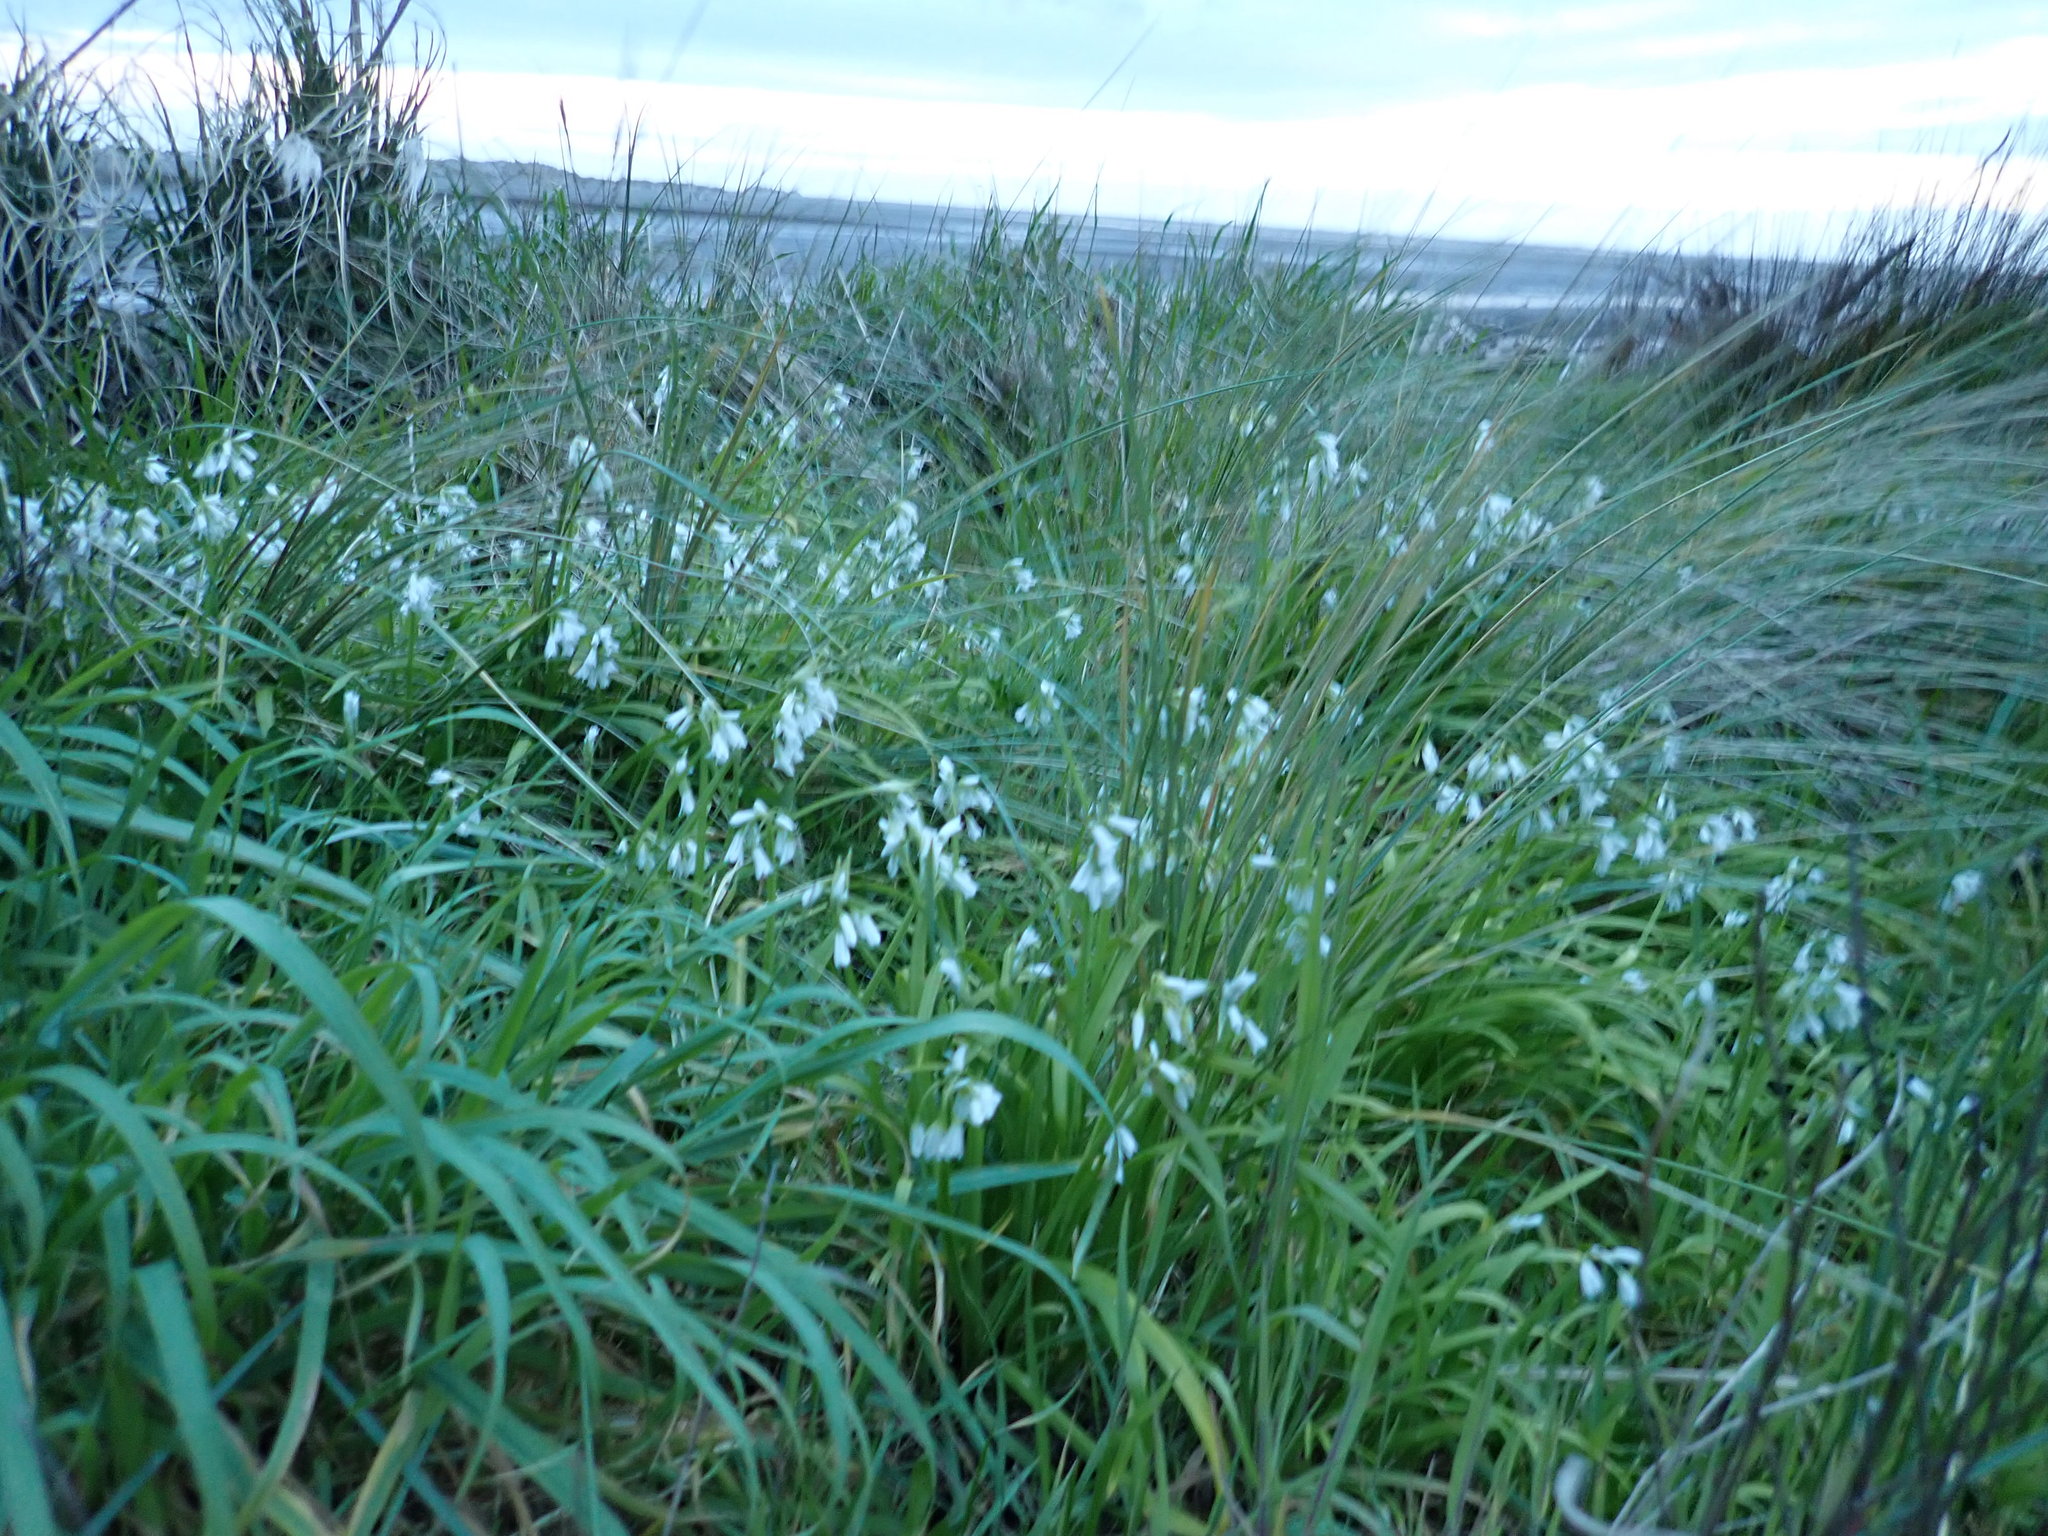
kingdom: Plantae
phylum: Tracheophyta
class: Liliopsida
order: Asparagales
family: Amaryllidaceae
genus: Allium
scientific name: Allium triquetrum
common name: Three-cornered garlic
